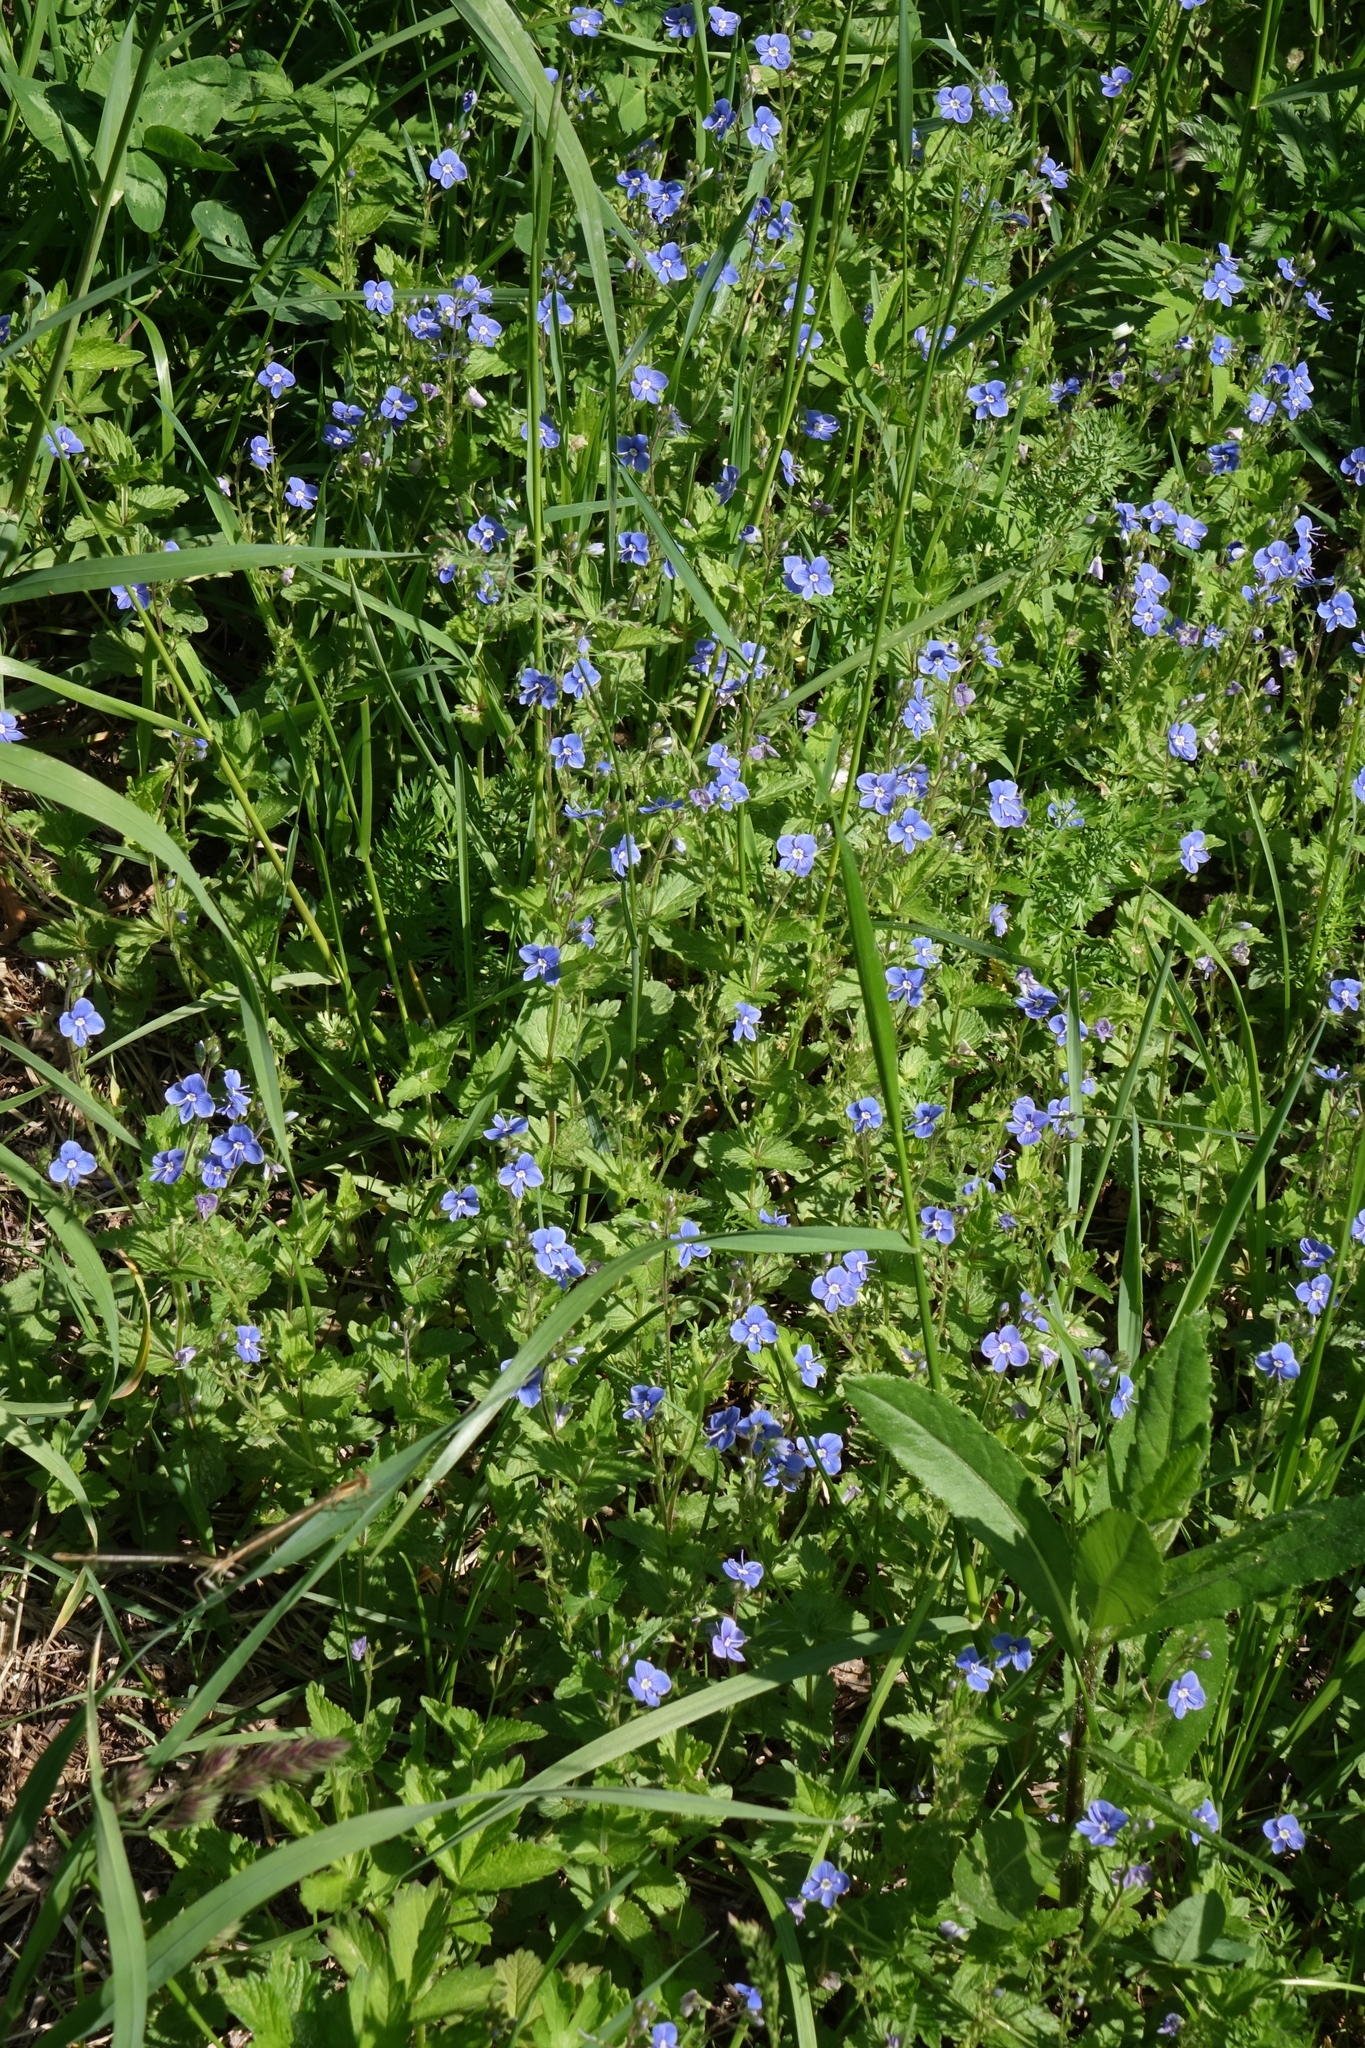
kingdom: Plantae
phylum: Tracheophyta
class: Magnoliopsida
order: Lamiales
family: Plantaginaceae
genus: Veronica
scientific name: Veronica chamaedrys
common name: Germander speedwell
